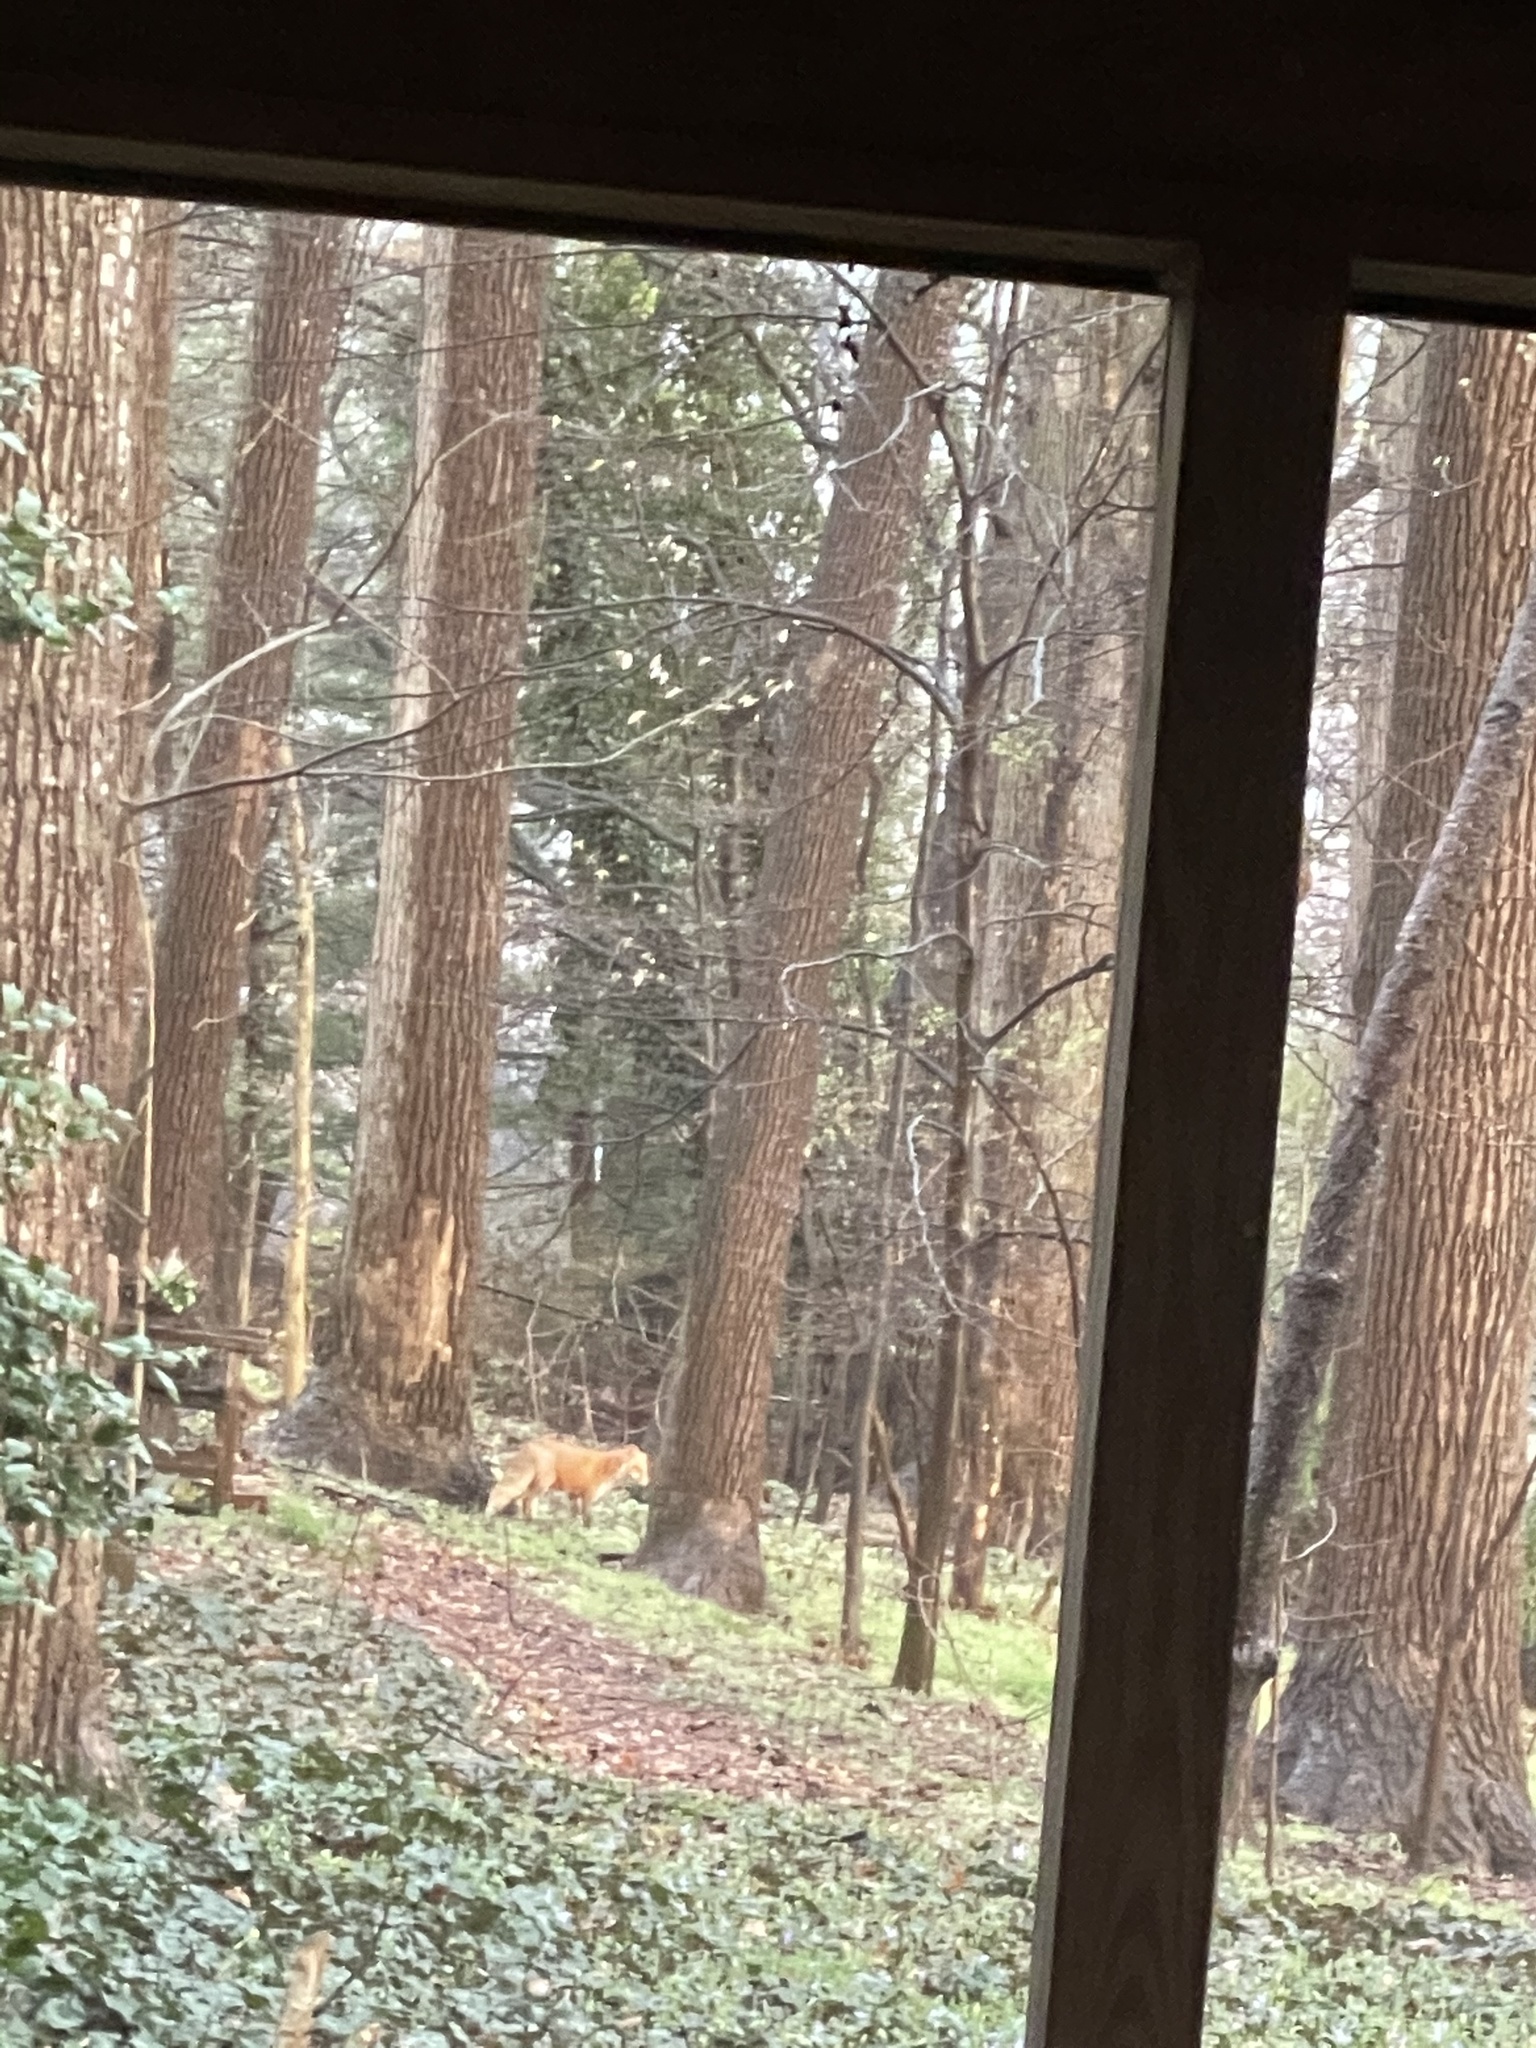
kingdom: Animalia
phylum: Chordata
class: Mammalia
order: Carnivora
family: Canidae
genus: Vulpes
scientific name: Vulpes vulpes
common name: Red fox
